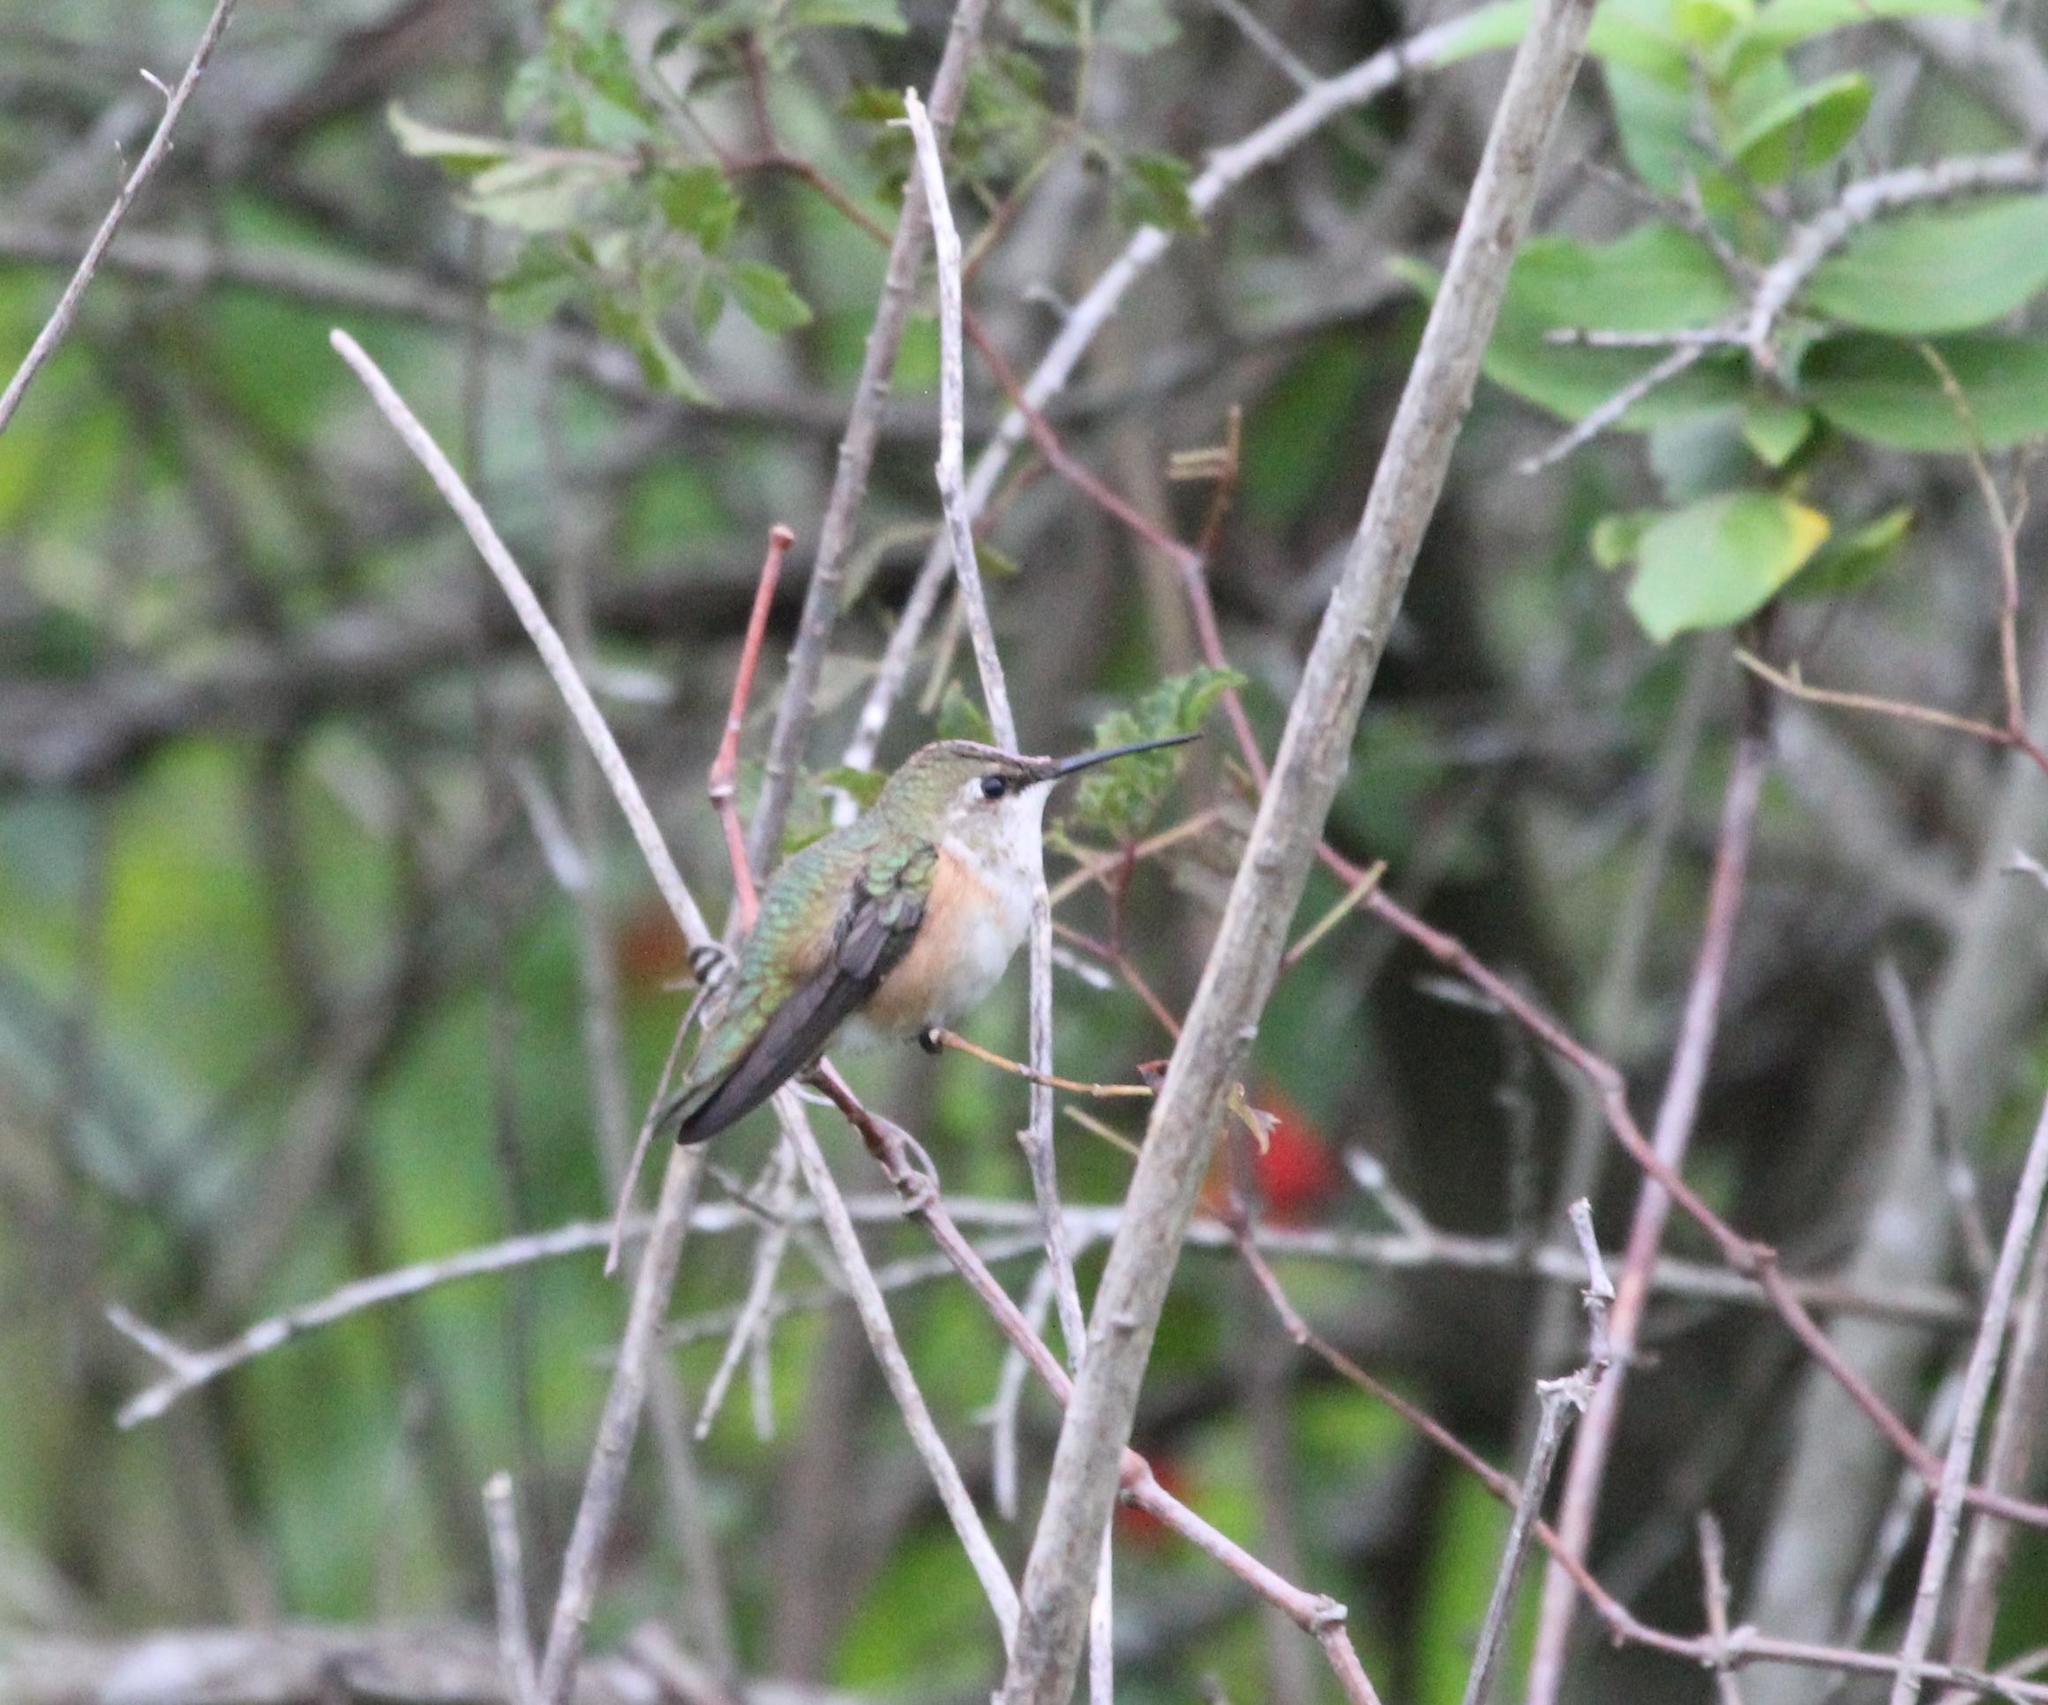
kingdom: Animalia
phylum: Chordata
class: Aves
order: Apodiformes
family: Trochilidae
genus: Selasphorus
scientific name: Selasphorus rufus
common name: Rufous hummingbird
